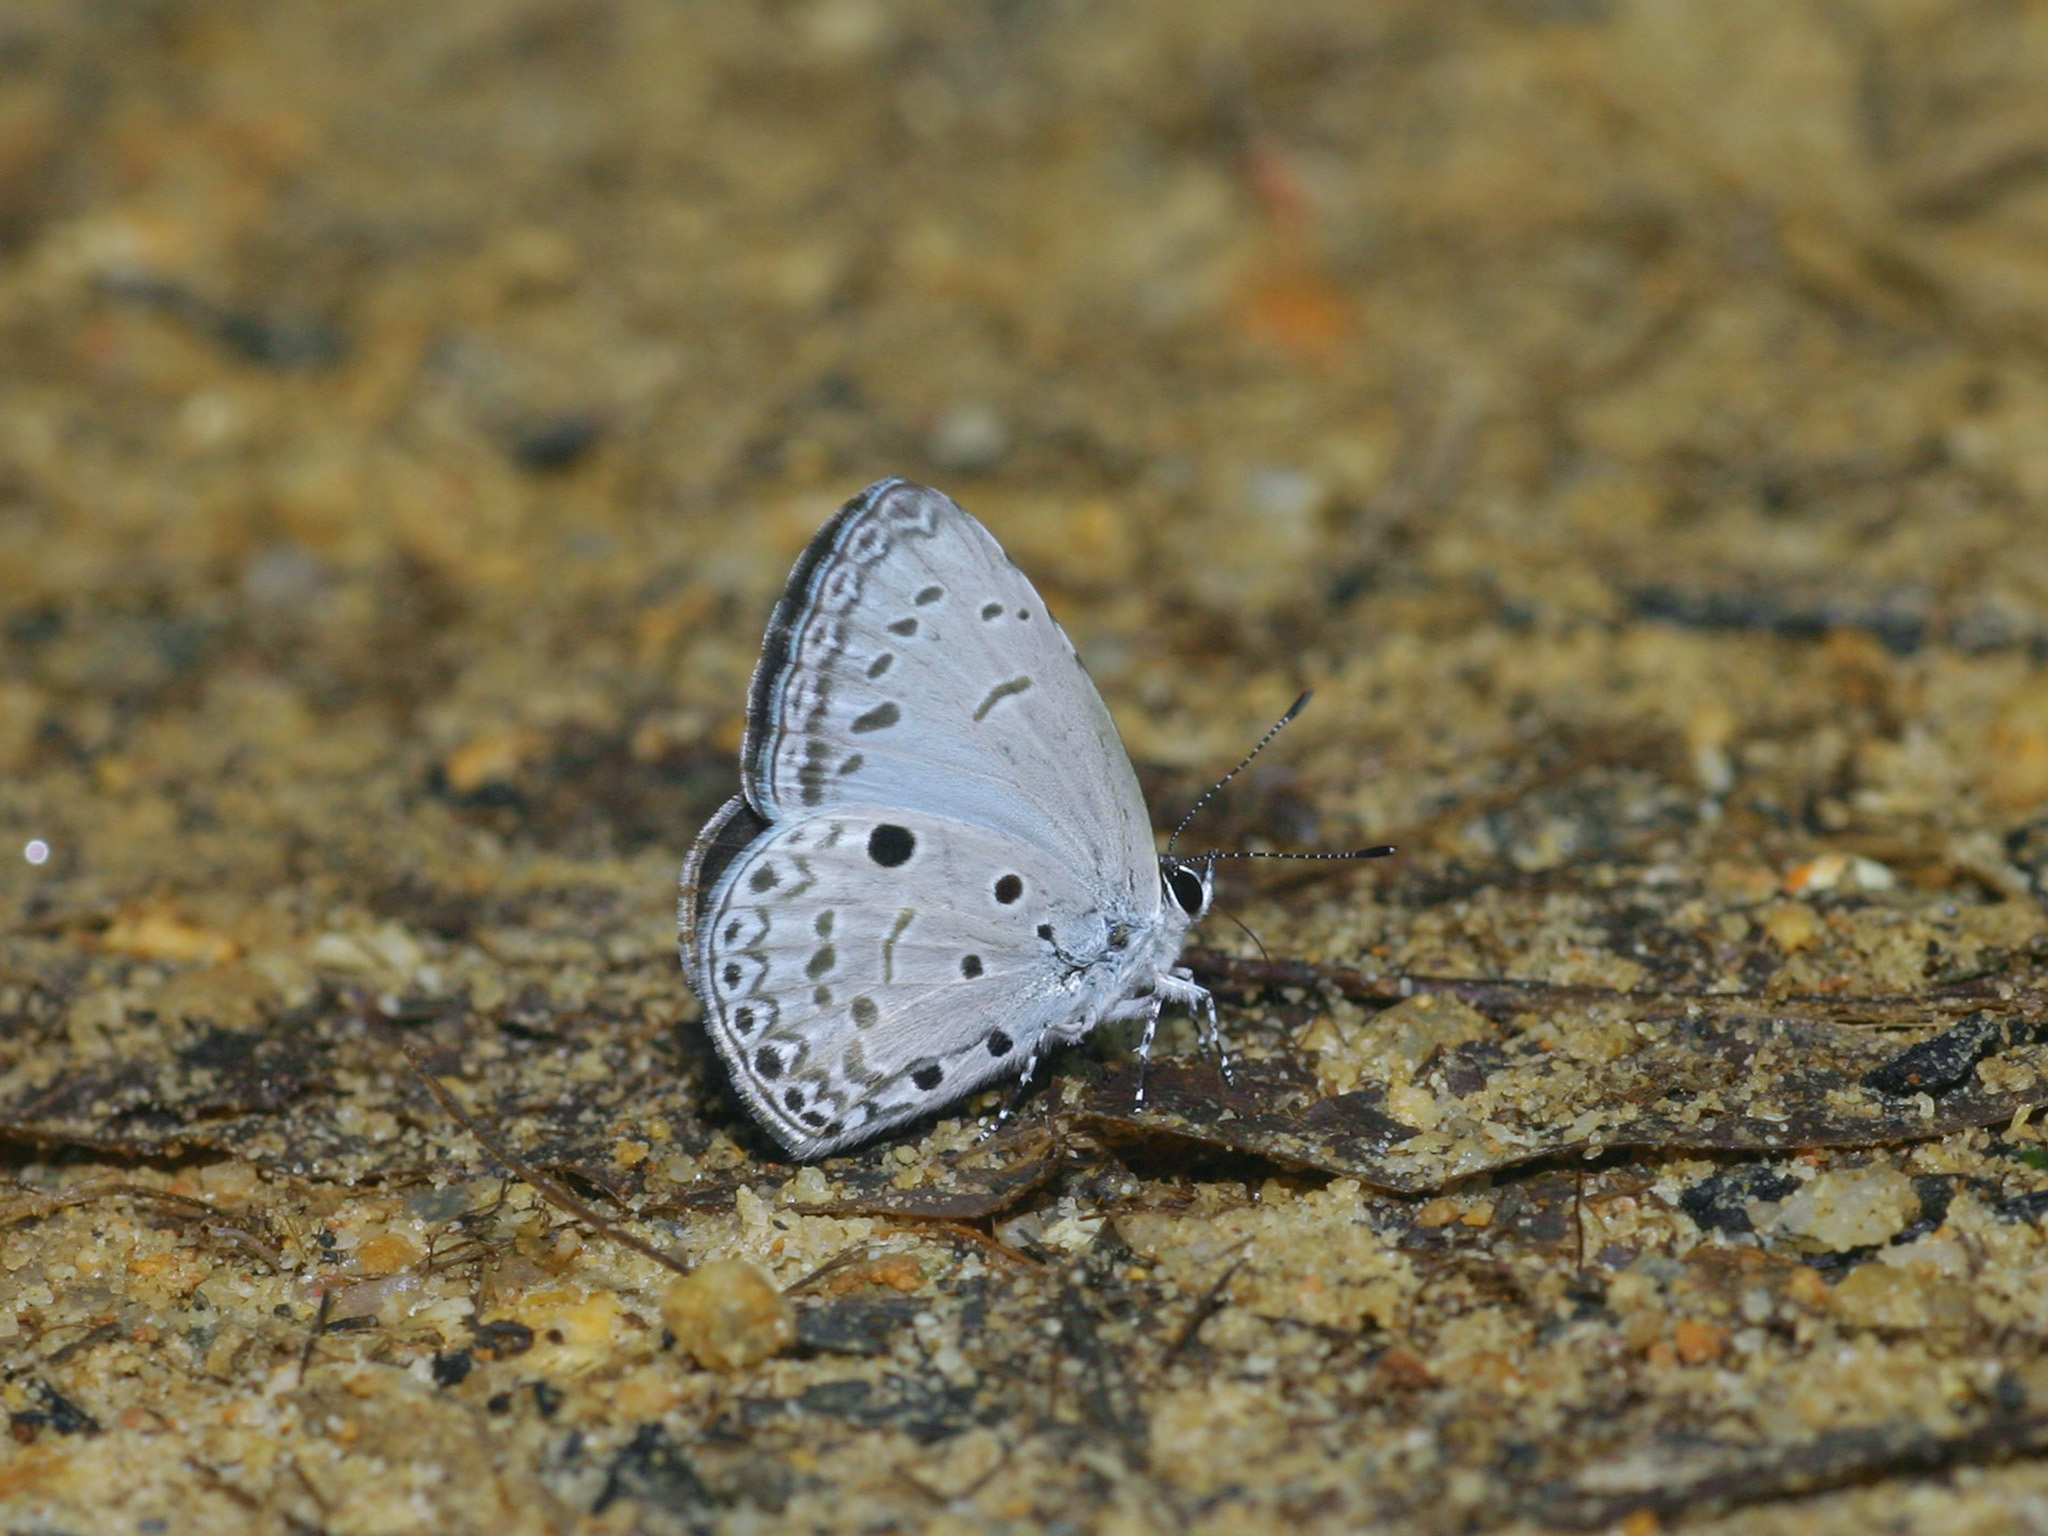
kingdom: Animalia
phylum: Arthropoda
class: Insecta
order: Lepidoptera
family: Lycaenidae
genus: Acytolepis
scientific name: Acytolepis puspa
